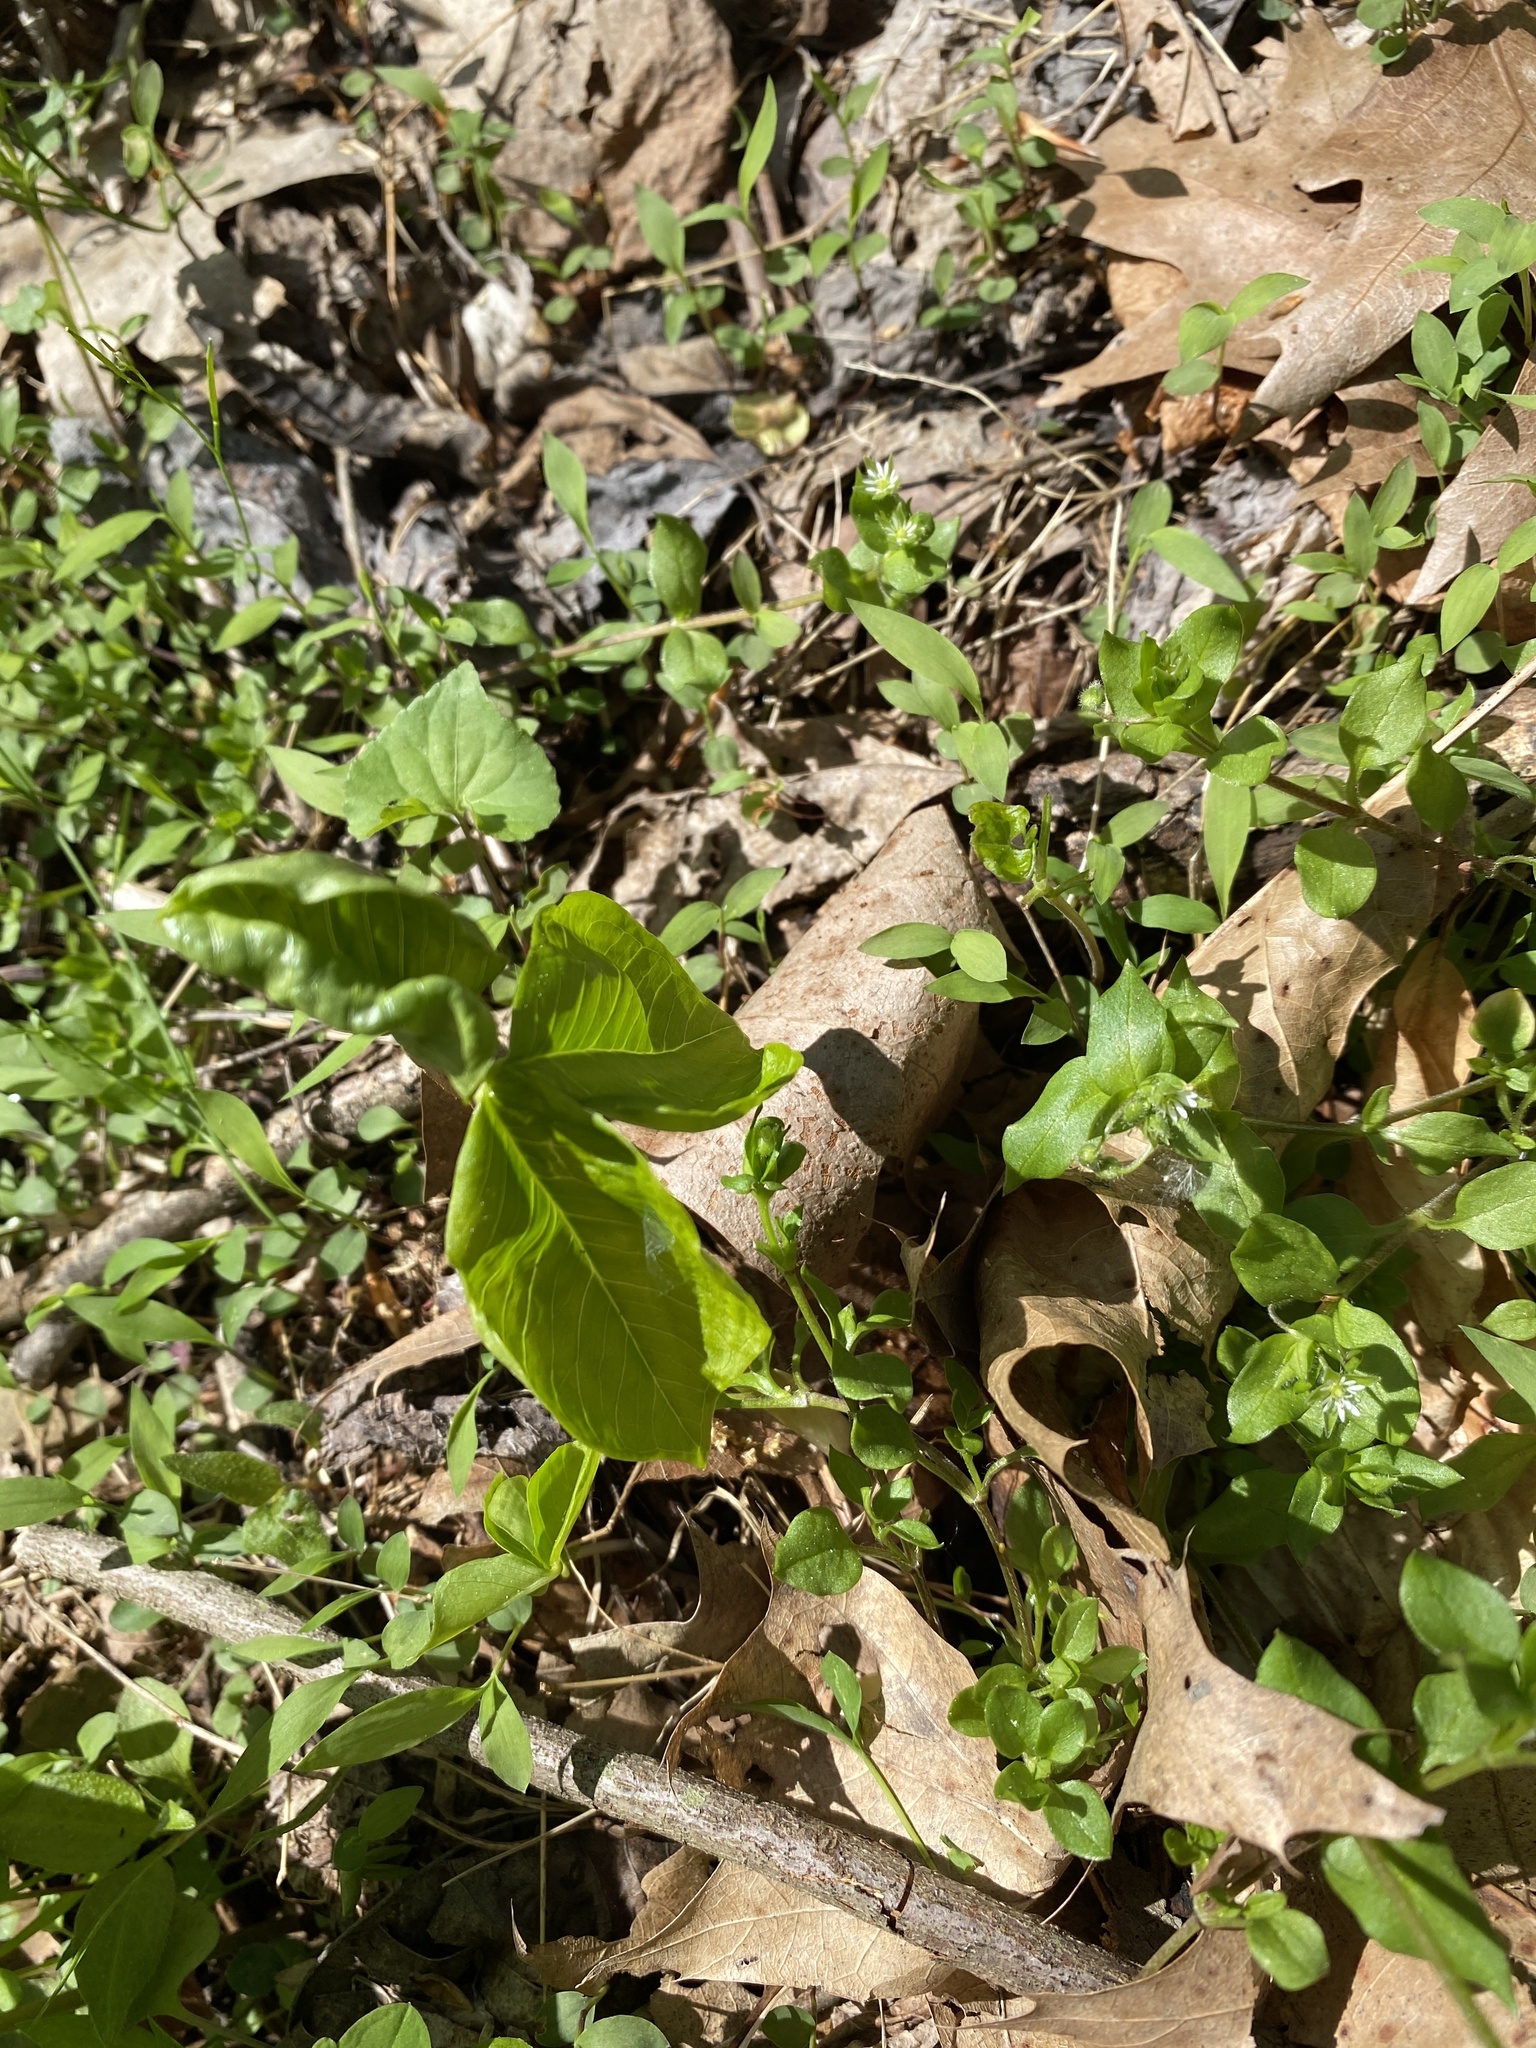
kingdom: Plantae
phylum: Tracheophyta
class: Liliopsida
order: Alismatales
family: Araceae
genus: Arisaema
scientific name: Arisaema triphyllum
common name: Jack-in-the-pulpit
